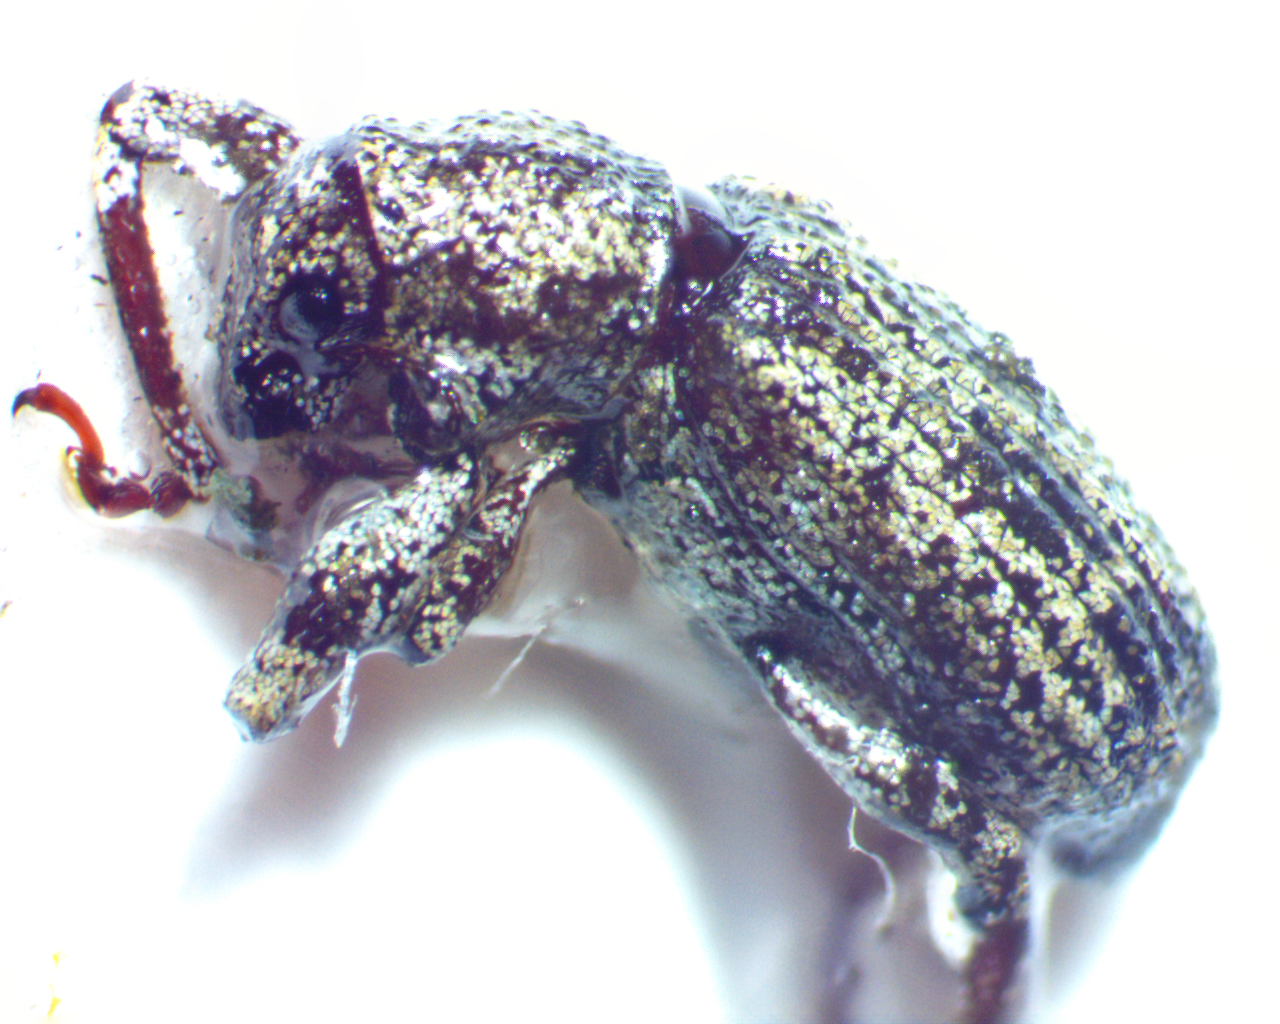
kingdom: Animalia
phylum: Arthropoda
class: Insecta
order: Coleoptera
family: Curculionidae
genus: Pandeleteius
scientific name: Pandeleteius hilaris
